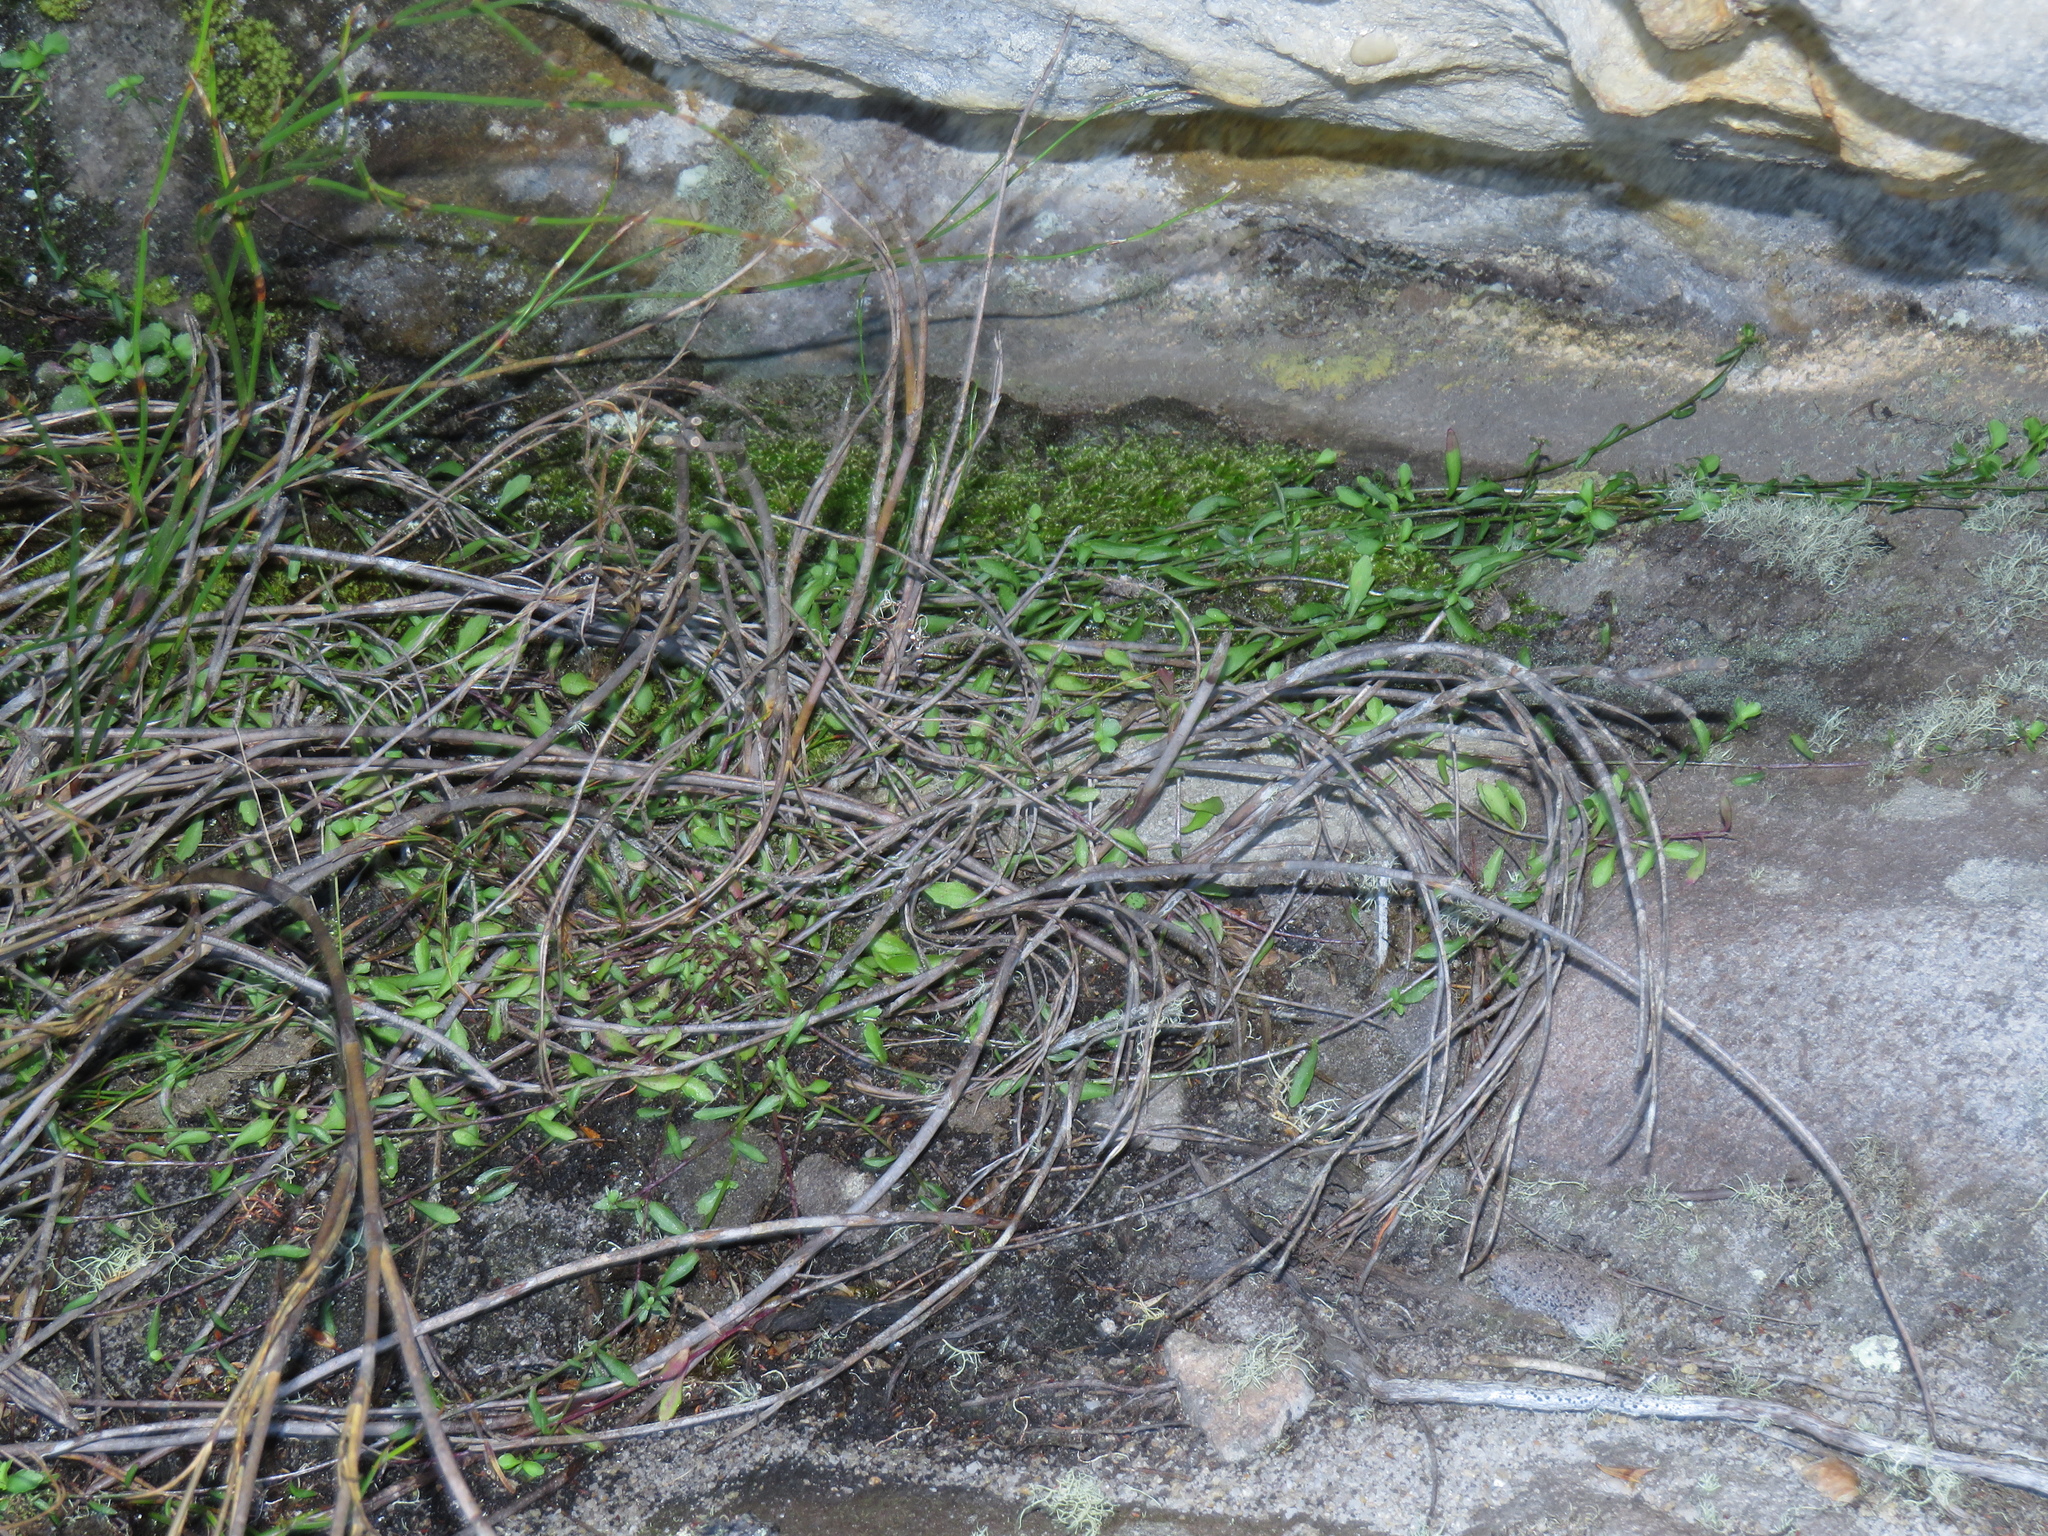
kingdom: Plantae
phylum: Tracheophyta
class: Magnoliopsida
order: Asterales
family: Campanulaceae
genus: Lobelia
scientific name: Lobelia eckloniana
